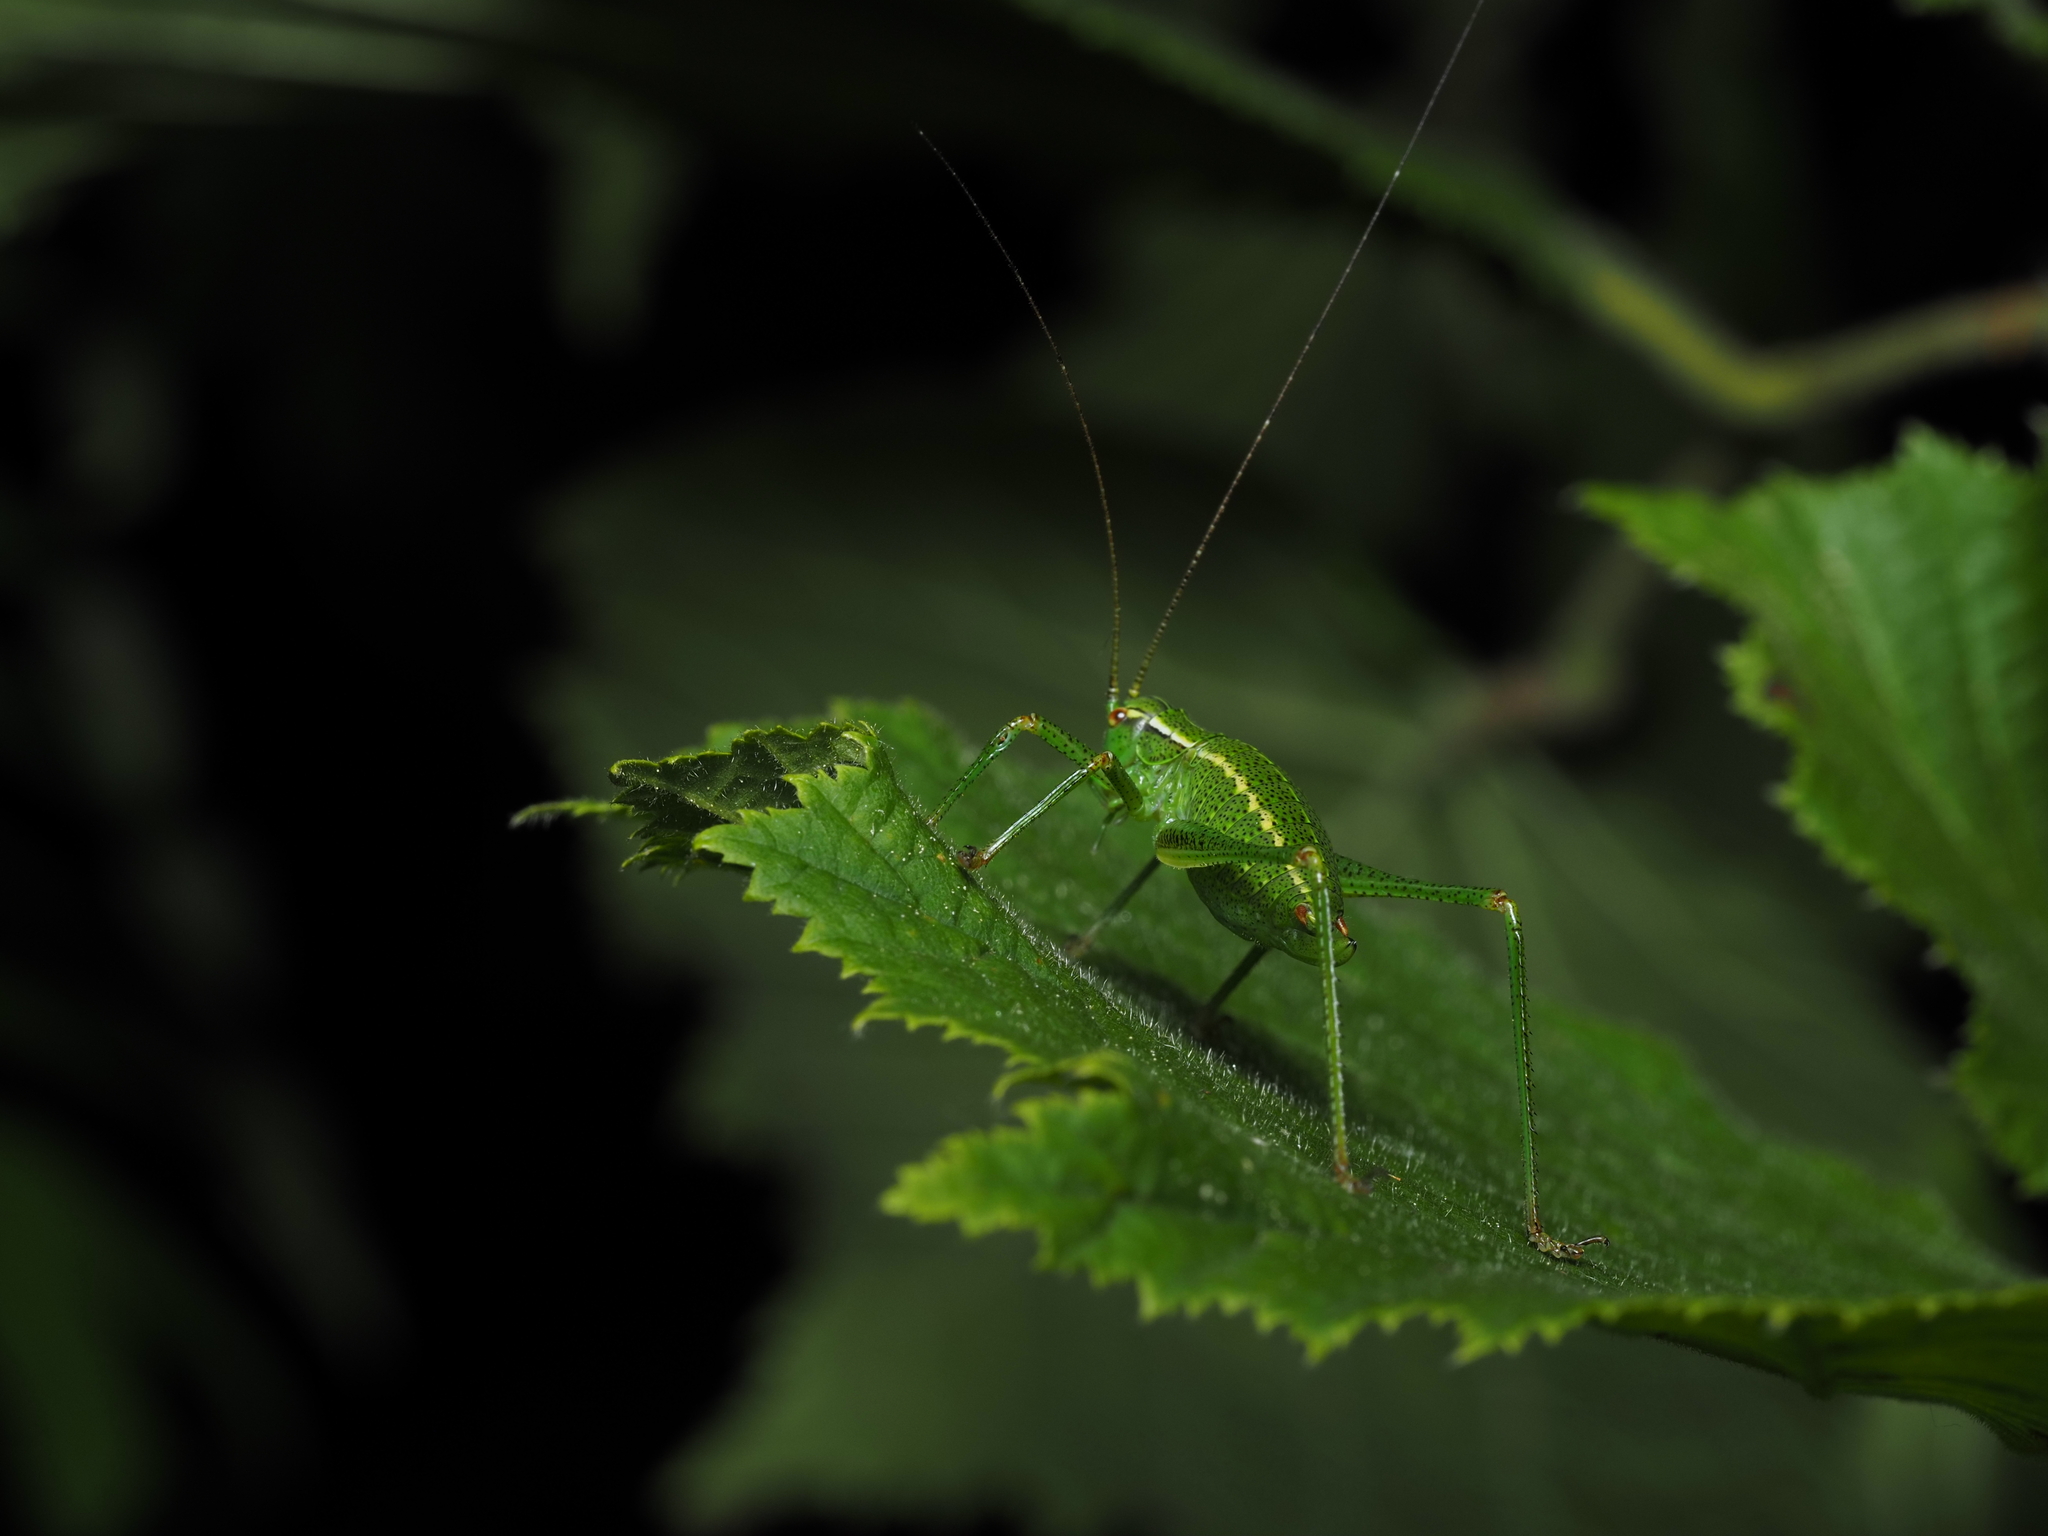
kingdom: Animalia
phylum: Arthropoda
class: Insecta
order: Orthoptera
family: Tettigoniidae
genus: Barbitistes
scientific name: Barbitistes constrictus
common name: Eastern saw-tailed bush cricket
